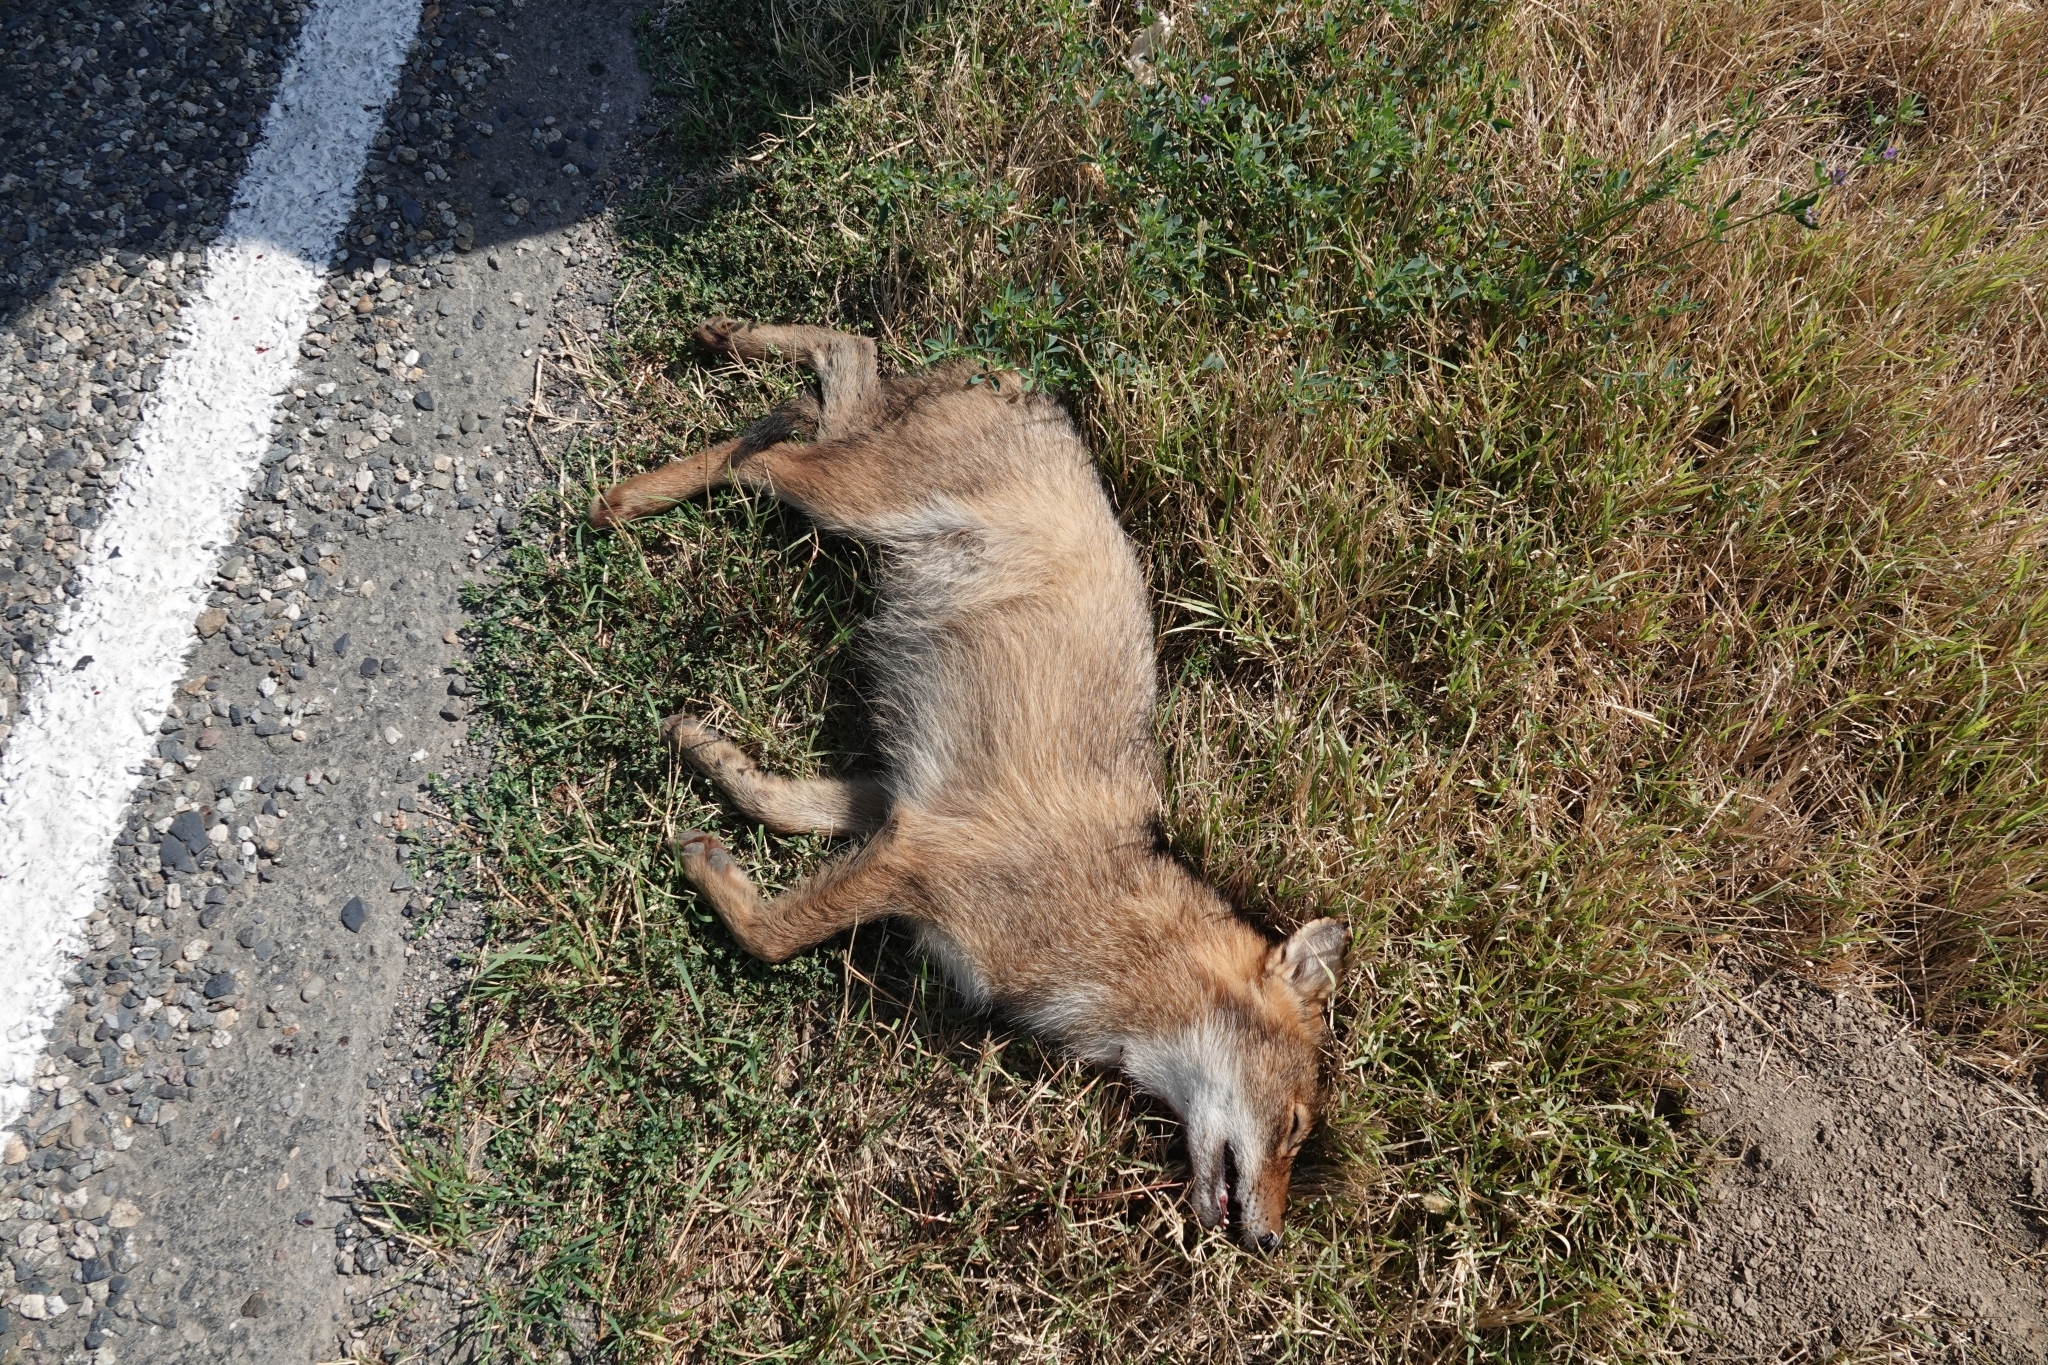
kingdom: Animalia
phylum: Chordata
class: Mammalia
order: Carnivora
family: Canidae
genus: Canis
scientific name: Canis aureus
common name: Golden jackal
